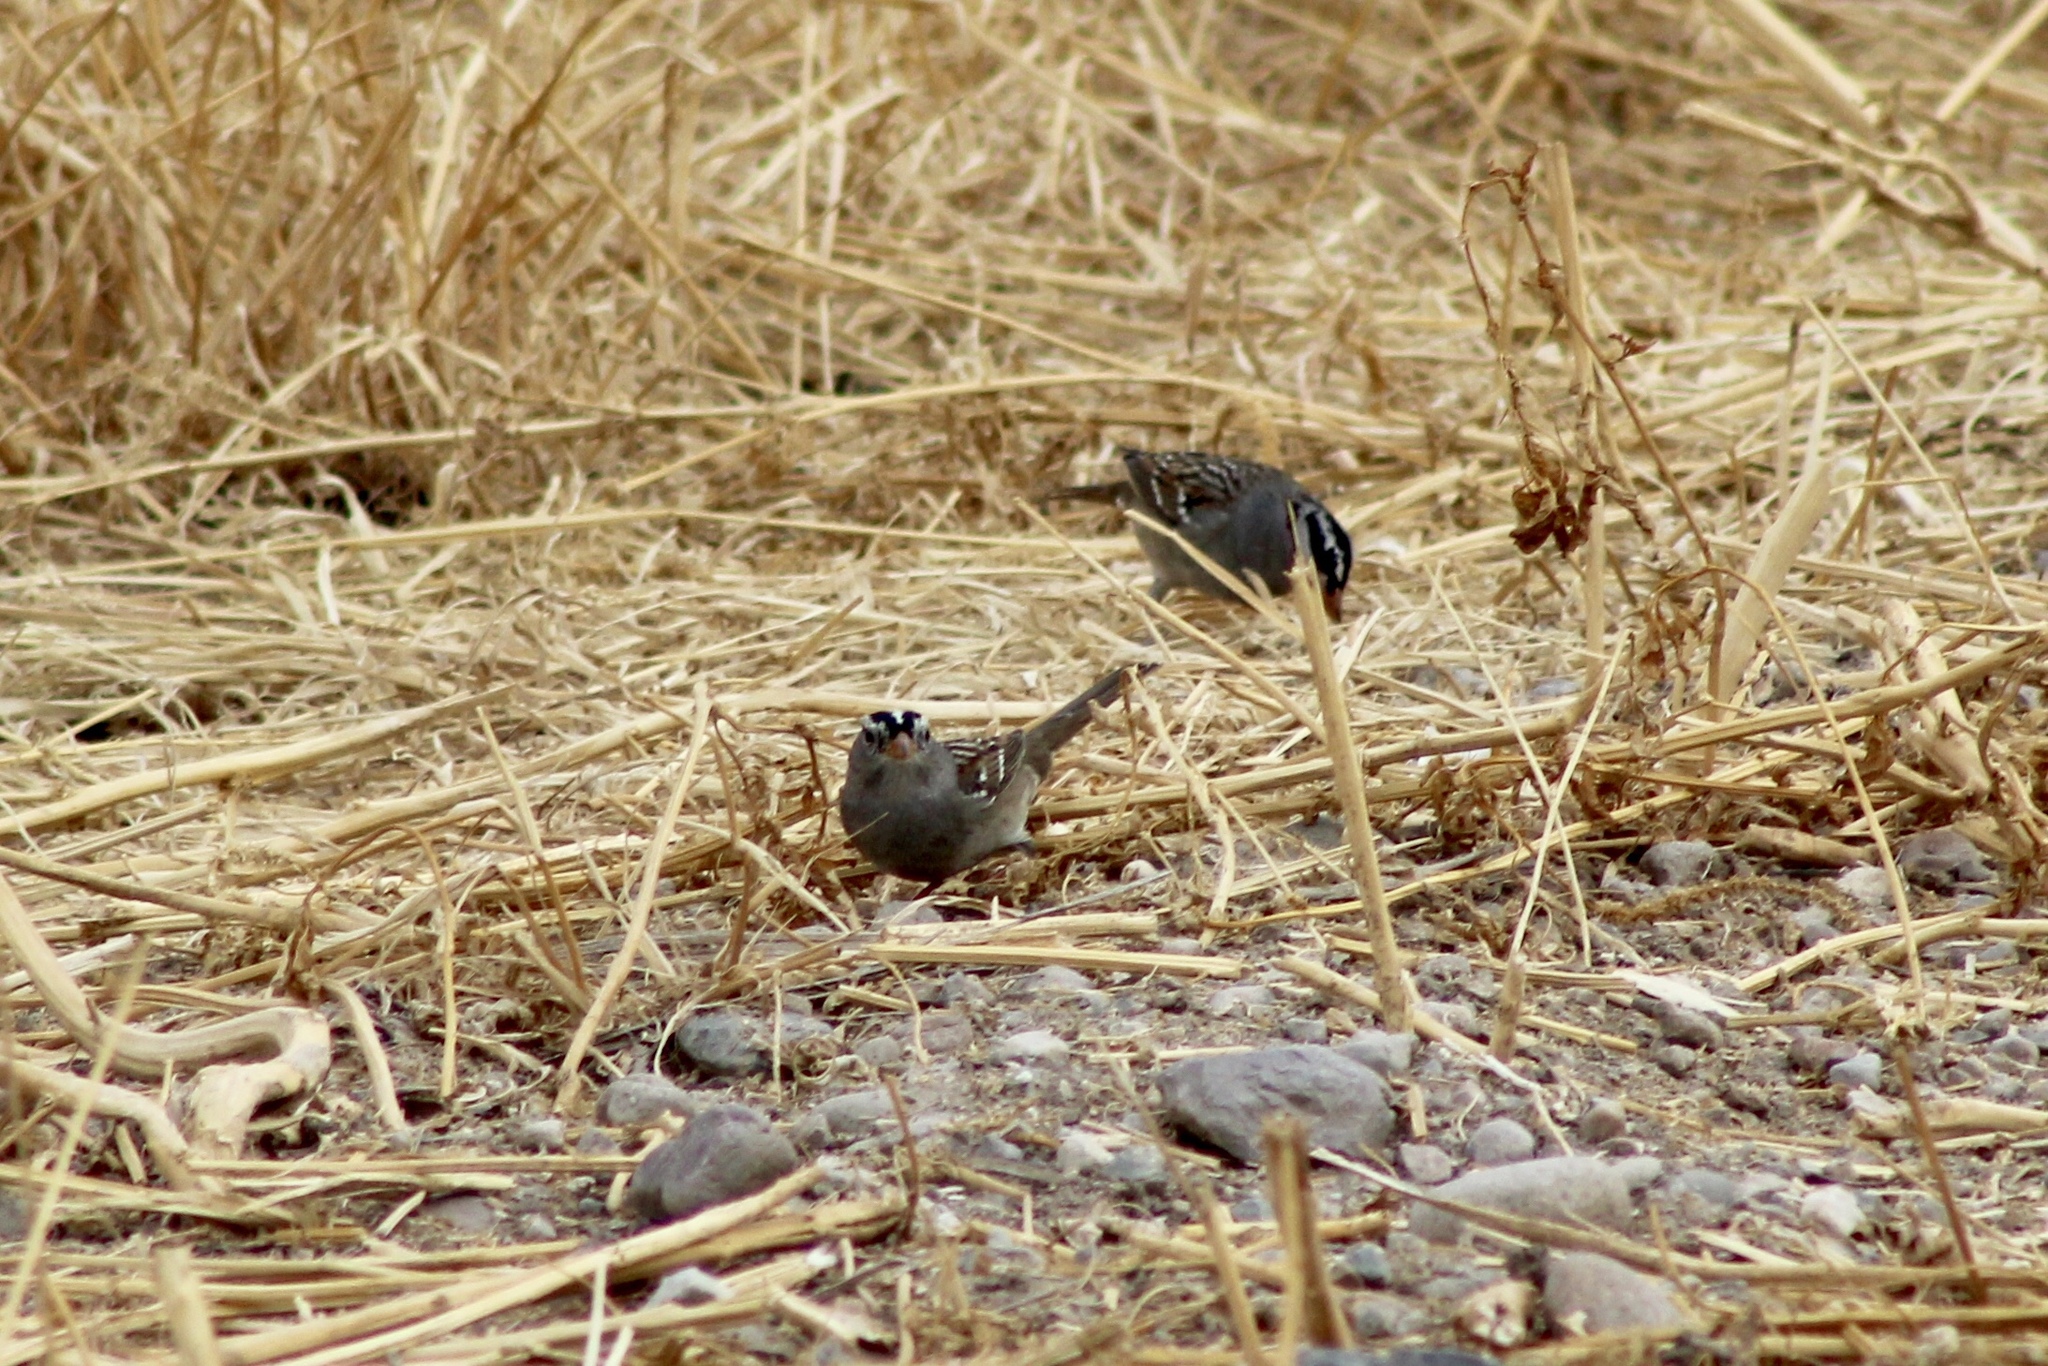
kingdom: Animalia
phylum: Chordata
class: Aves
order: Passeriformes
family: Passerellidae
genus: Zonotrichia
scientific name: Zonotrichia leucophrys
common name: White-crowned sparrow
